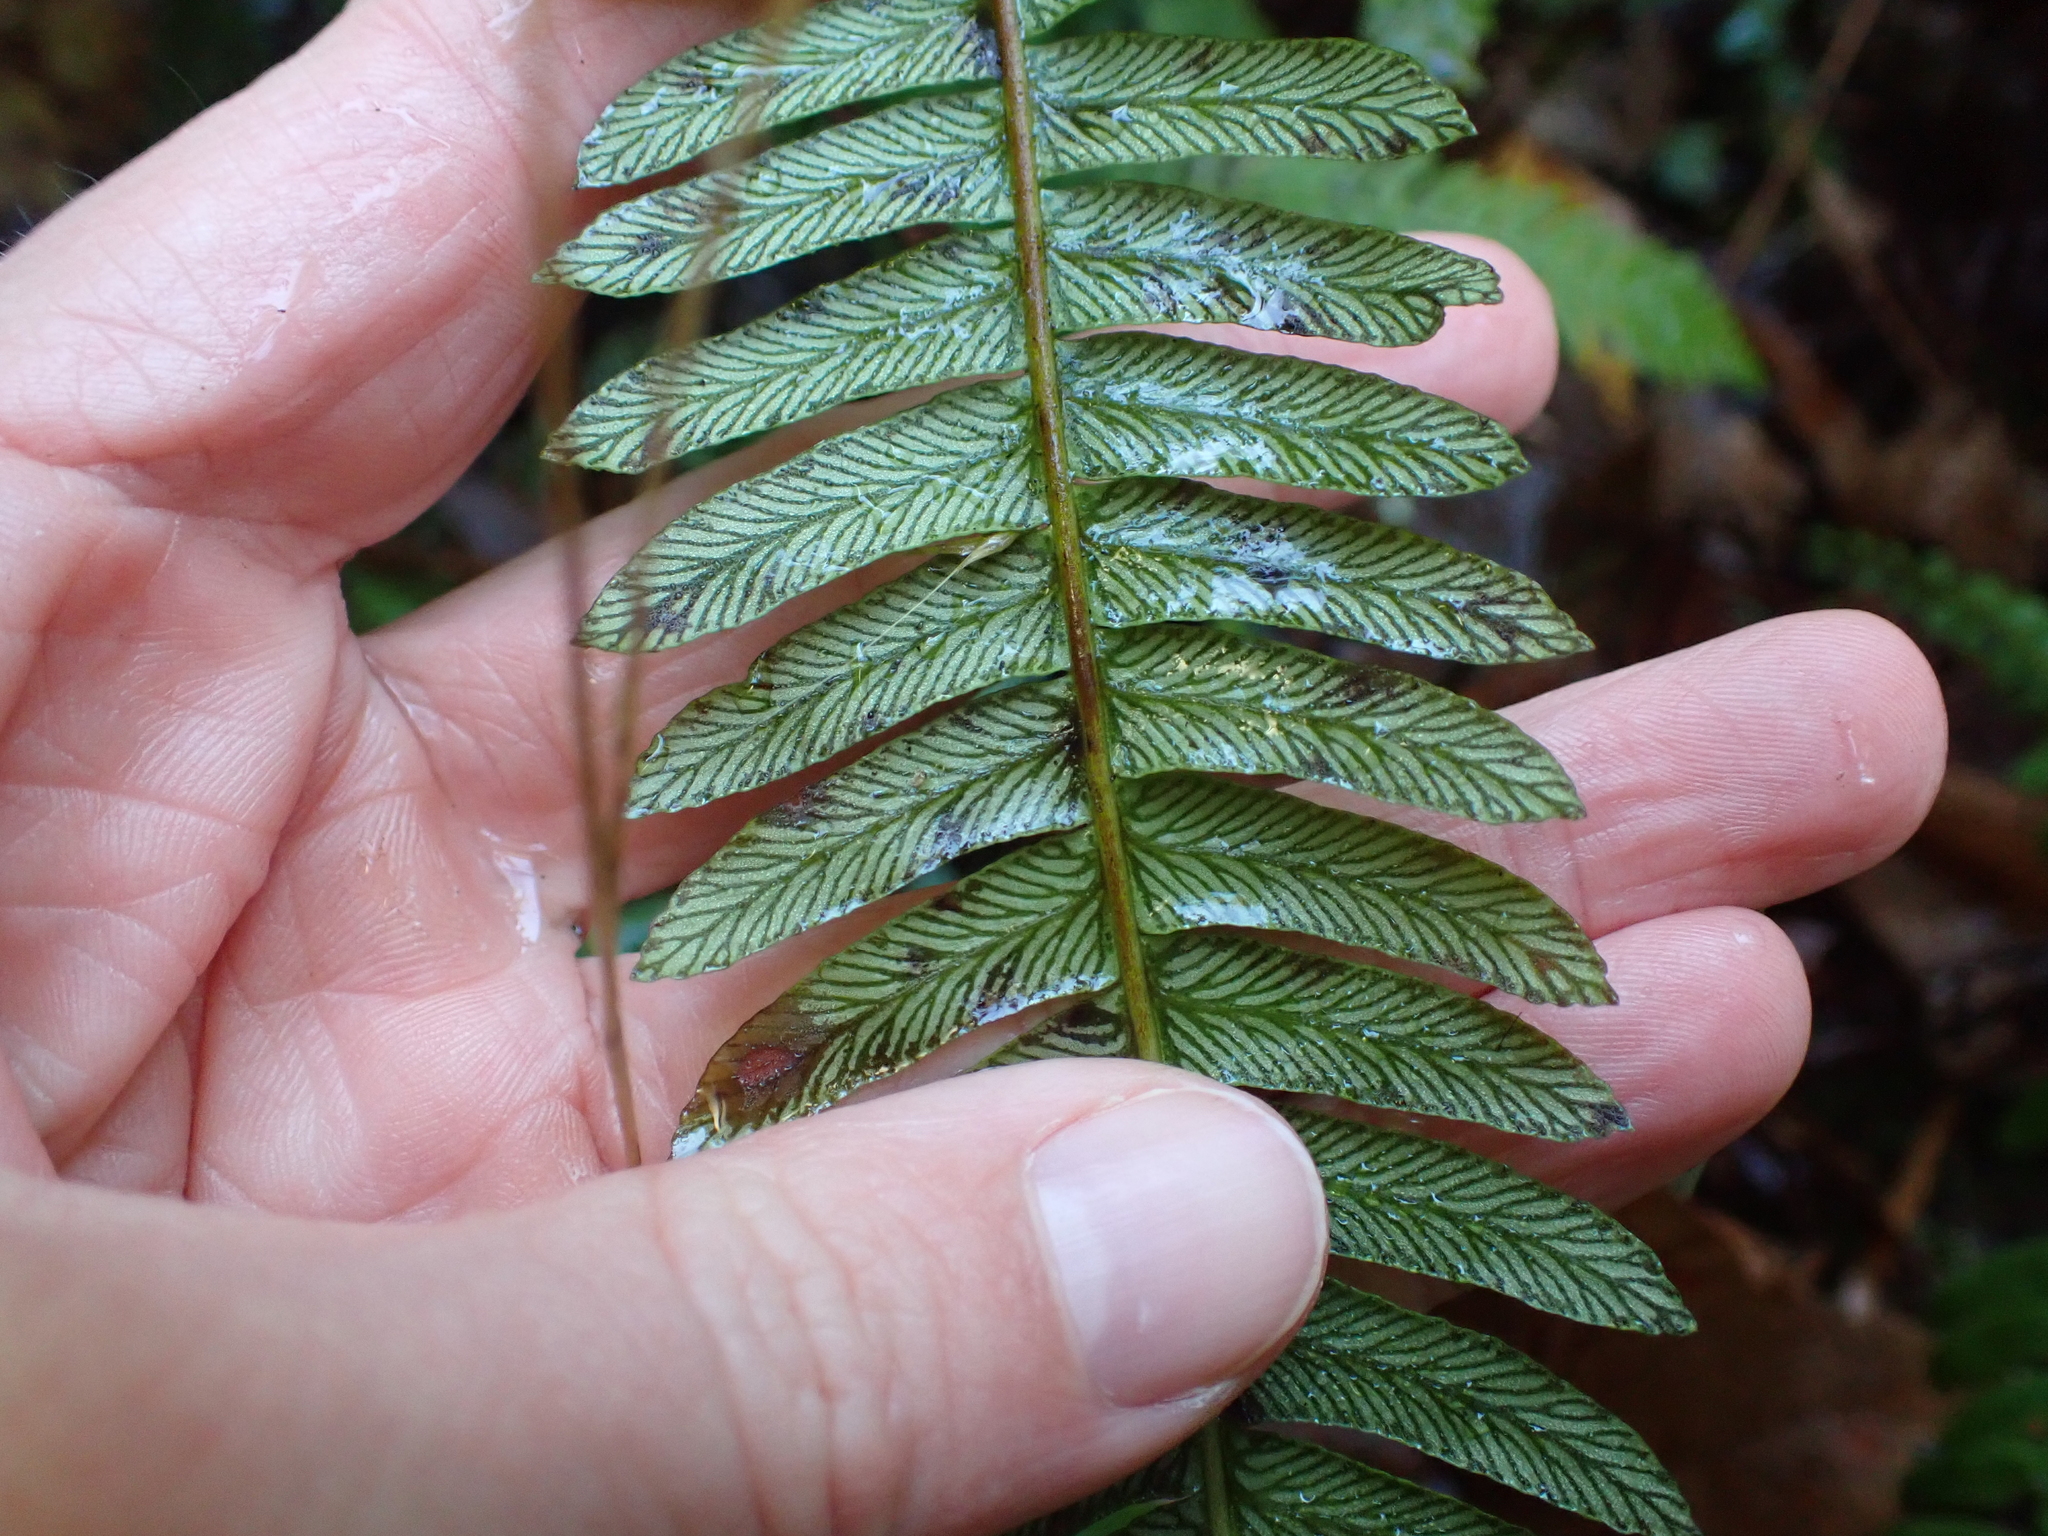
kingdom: Plantae
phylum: Tracheophyta
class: Polypodiopsida
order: Polypodiales
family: Blechnaceae
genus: Struthiopteris
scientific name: Struthiopteris spicant
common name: Deer fern
